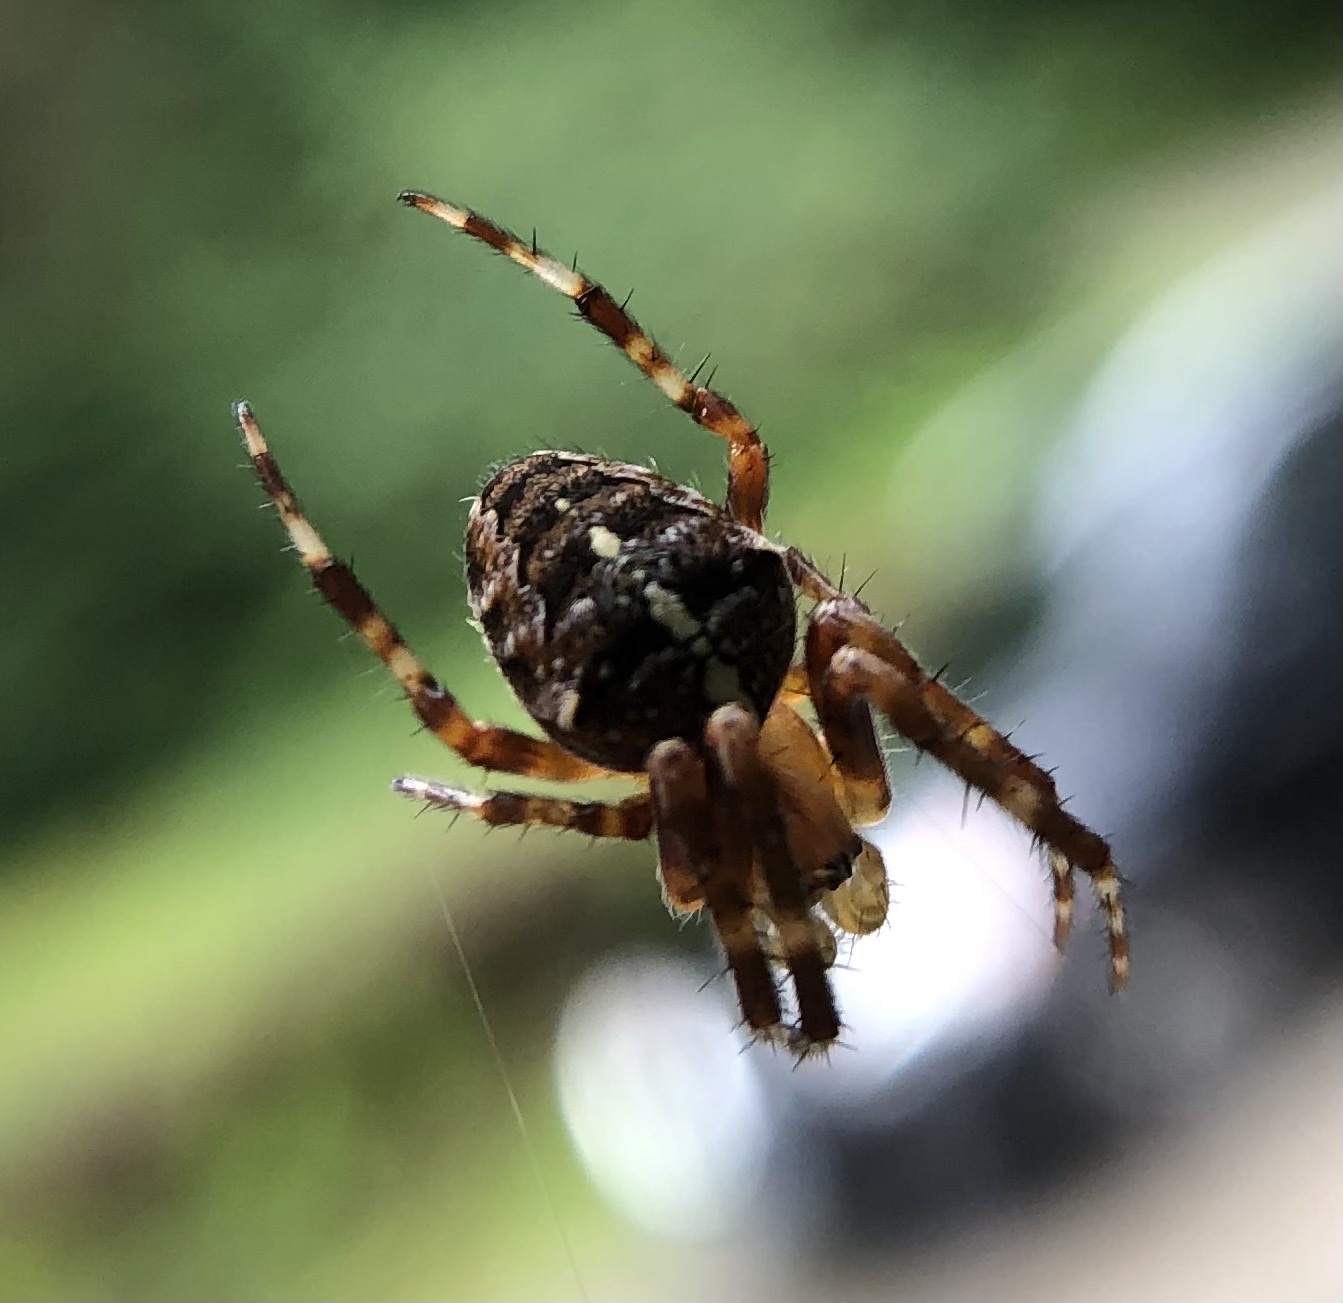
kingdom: Animalia
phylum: Arthropoda
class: Arachnida
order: Araneae
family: Araneidae
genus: Araneus
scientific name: Araneus diadematus
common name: Cross orbweaver
